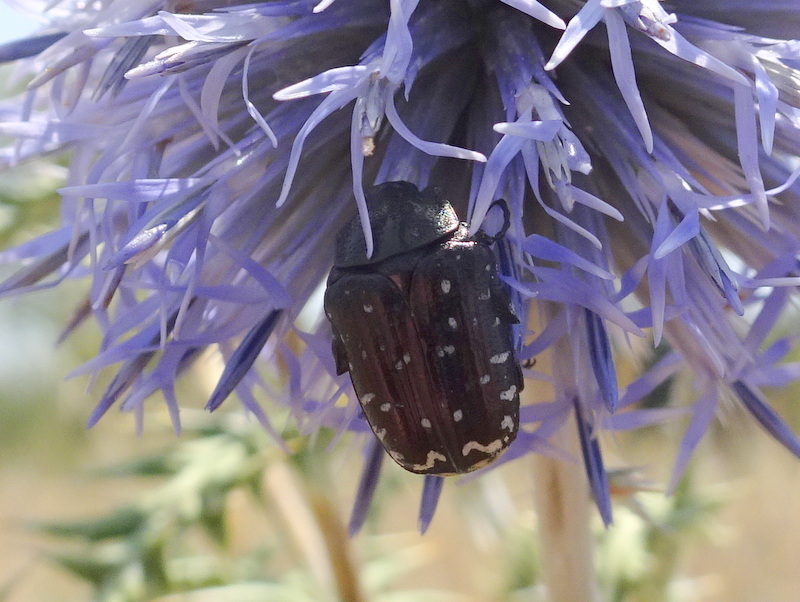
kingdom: Animalia
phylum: Arthropoda
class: Insecta
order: Coleoptera
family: Scarabaeidae
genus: Oxythyrea
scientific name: Oxythyrea funesta
